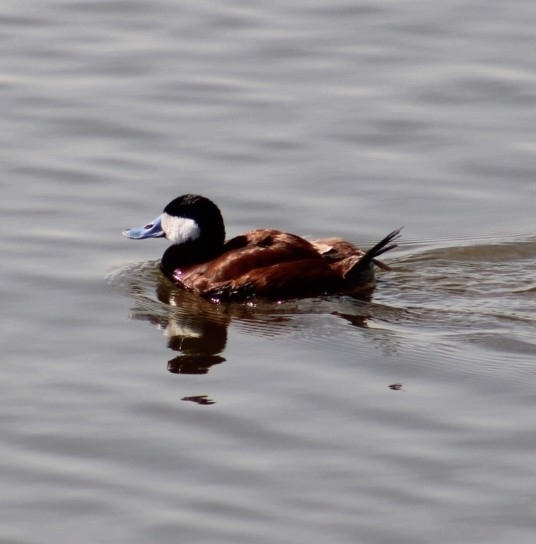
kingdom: Animalia
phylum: Chordata
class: Aves
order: Anseriformes
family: Anatidae
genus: Oxyura
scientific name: Oxyura jamaicensis
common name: Ruddy duck
